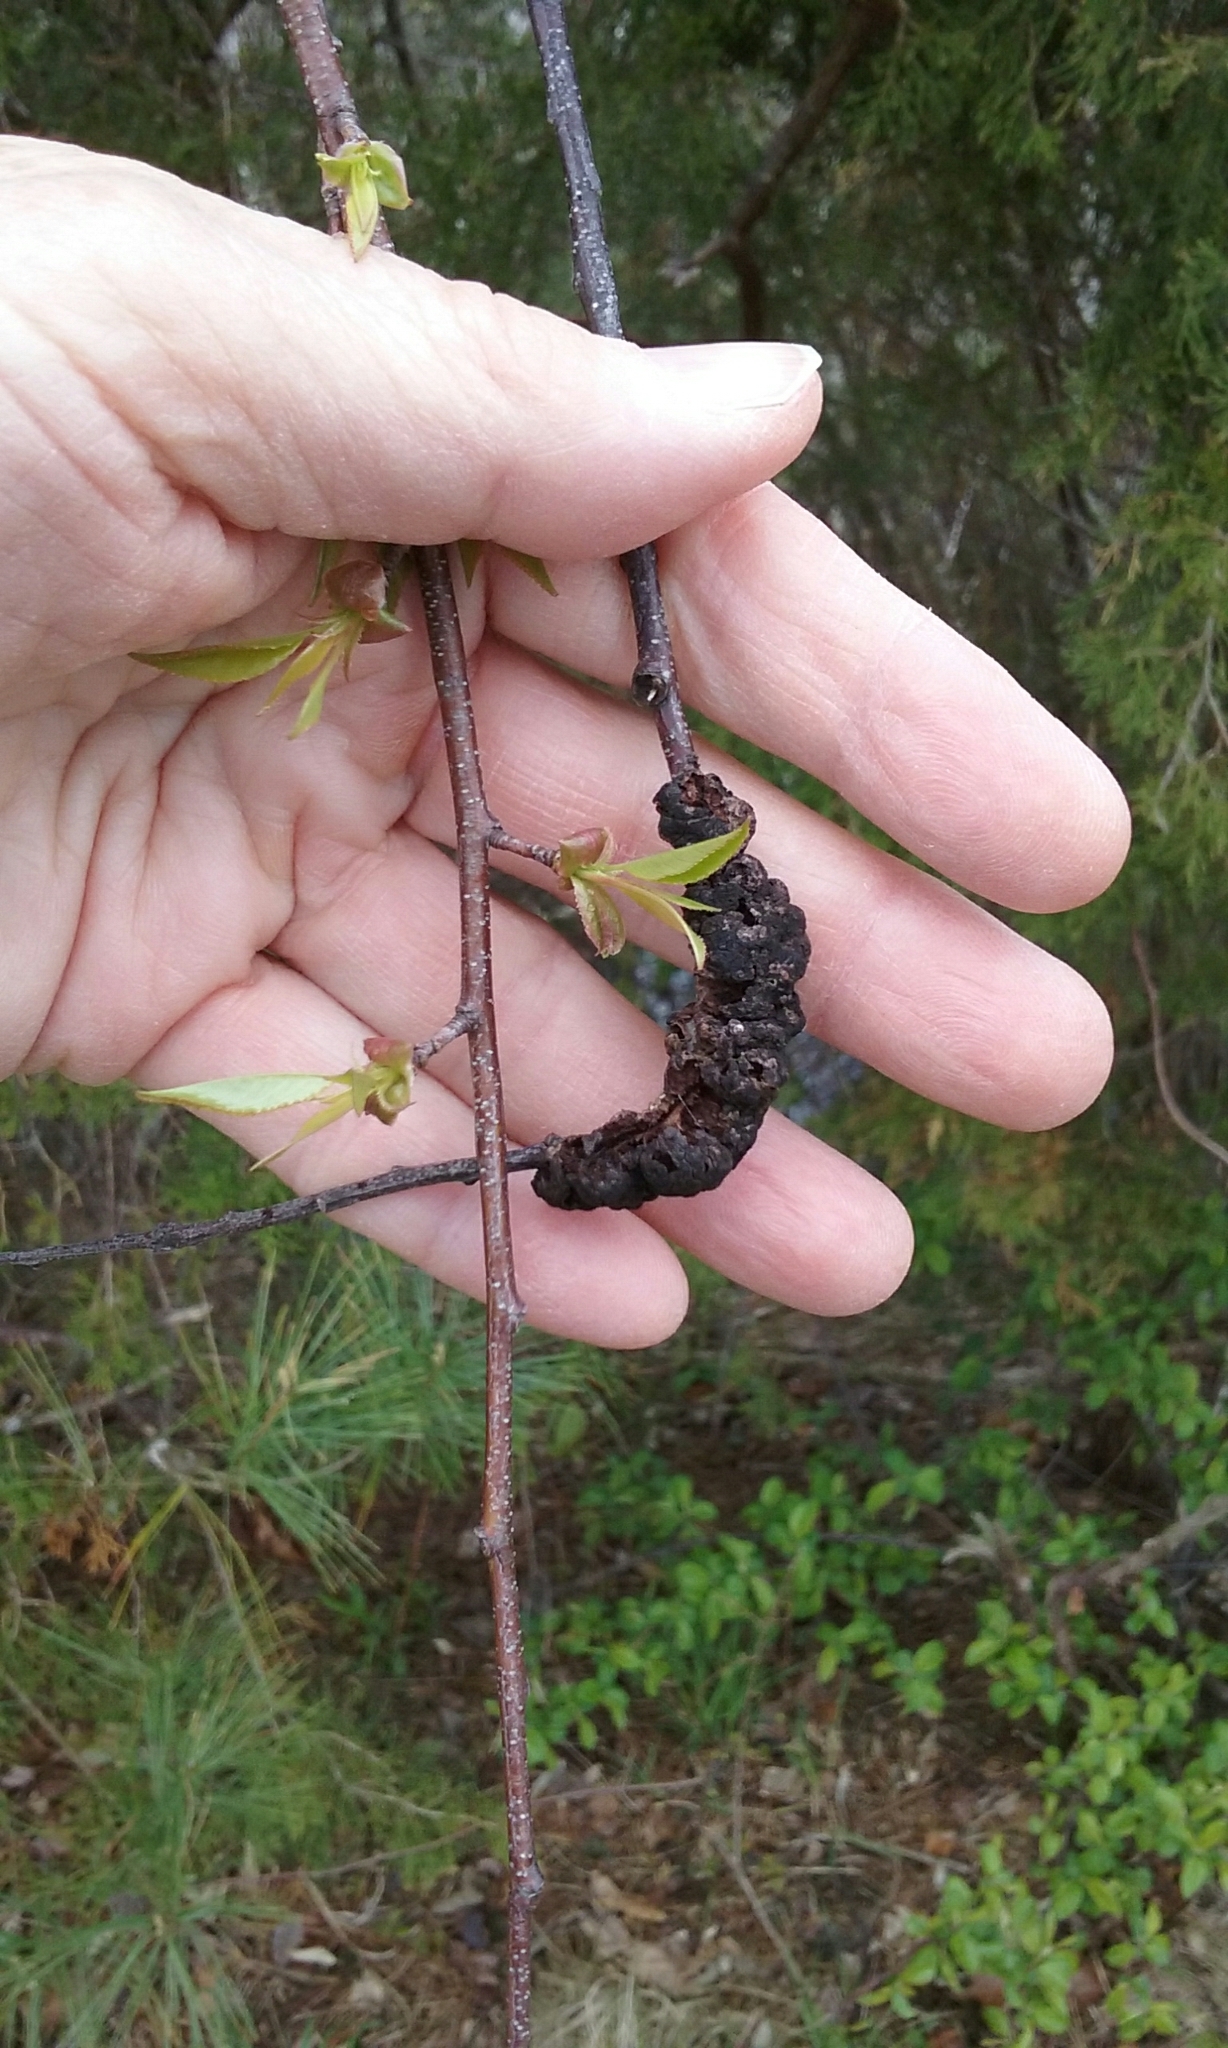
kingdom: Fungi
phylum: Ascomycota
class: Dothideomycetes
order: Venturiales
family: Venturiaceae
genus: Apiosporina
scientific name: Apiosporina morbosa
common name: Black knot
